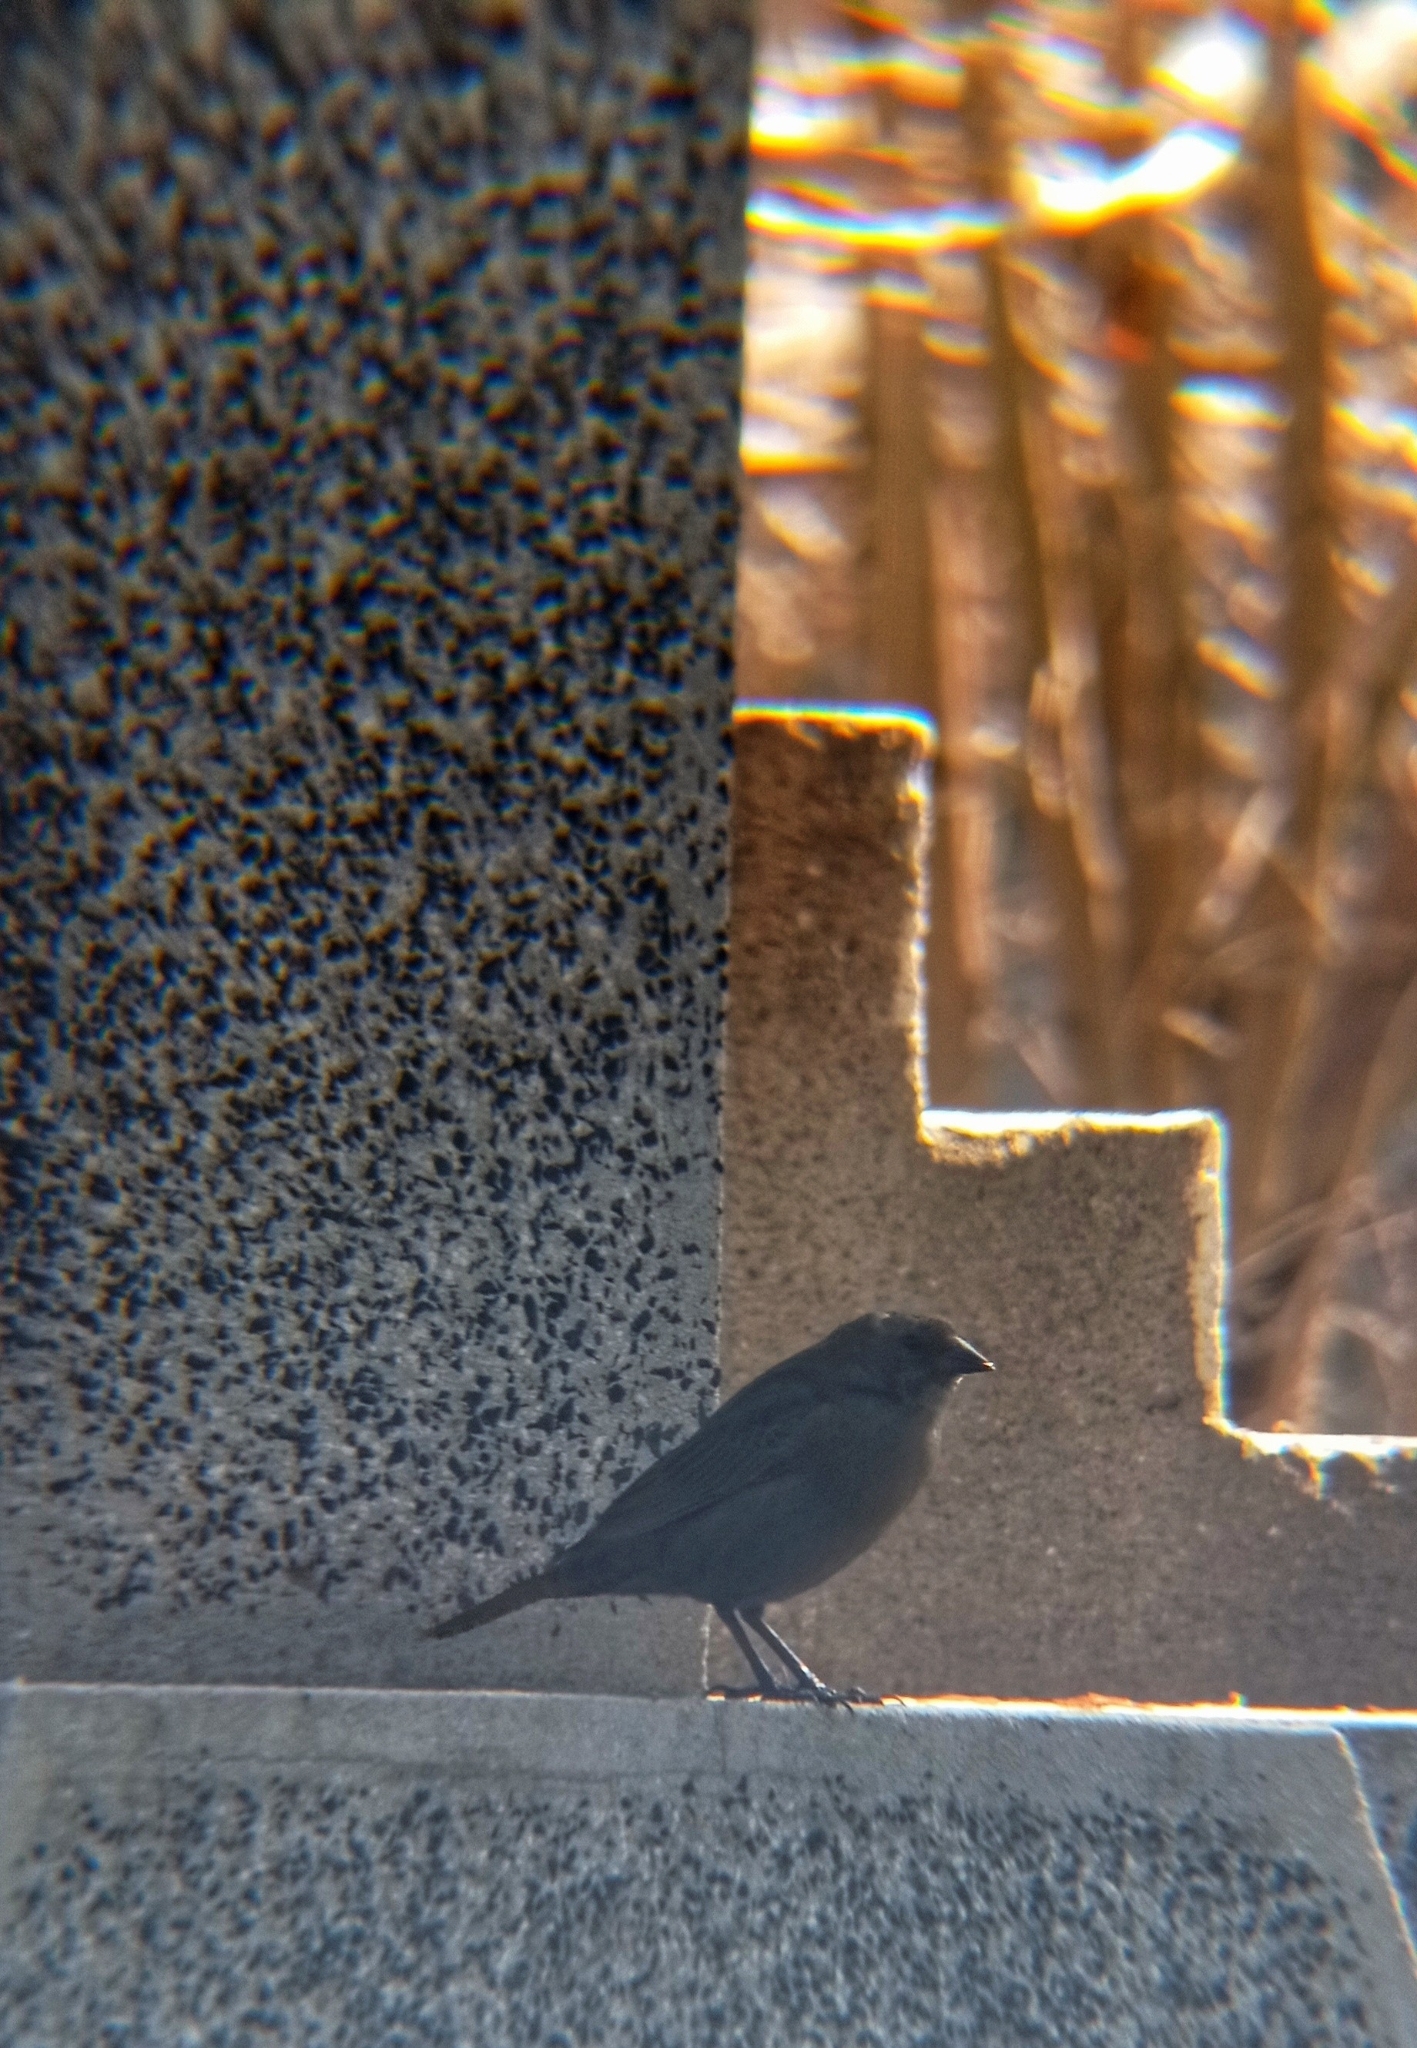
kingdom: Animalia
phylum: Chordata
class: Aves
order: Passeriformes
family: Icteridae
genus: Molothrus
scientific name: Molothrus bonariensis
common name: Shiny cowbird
